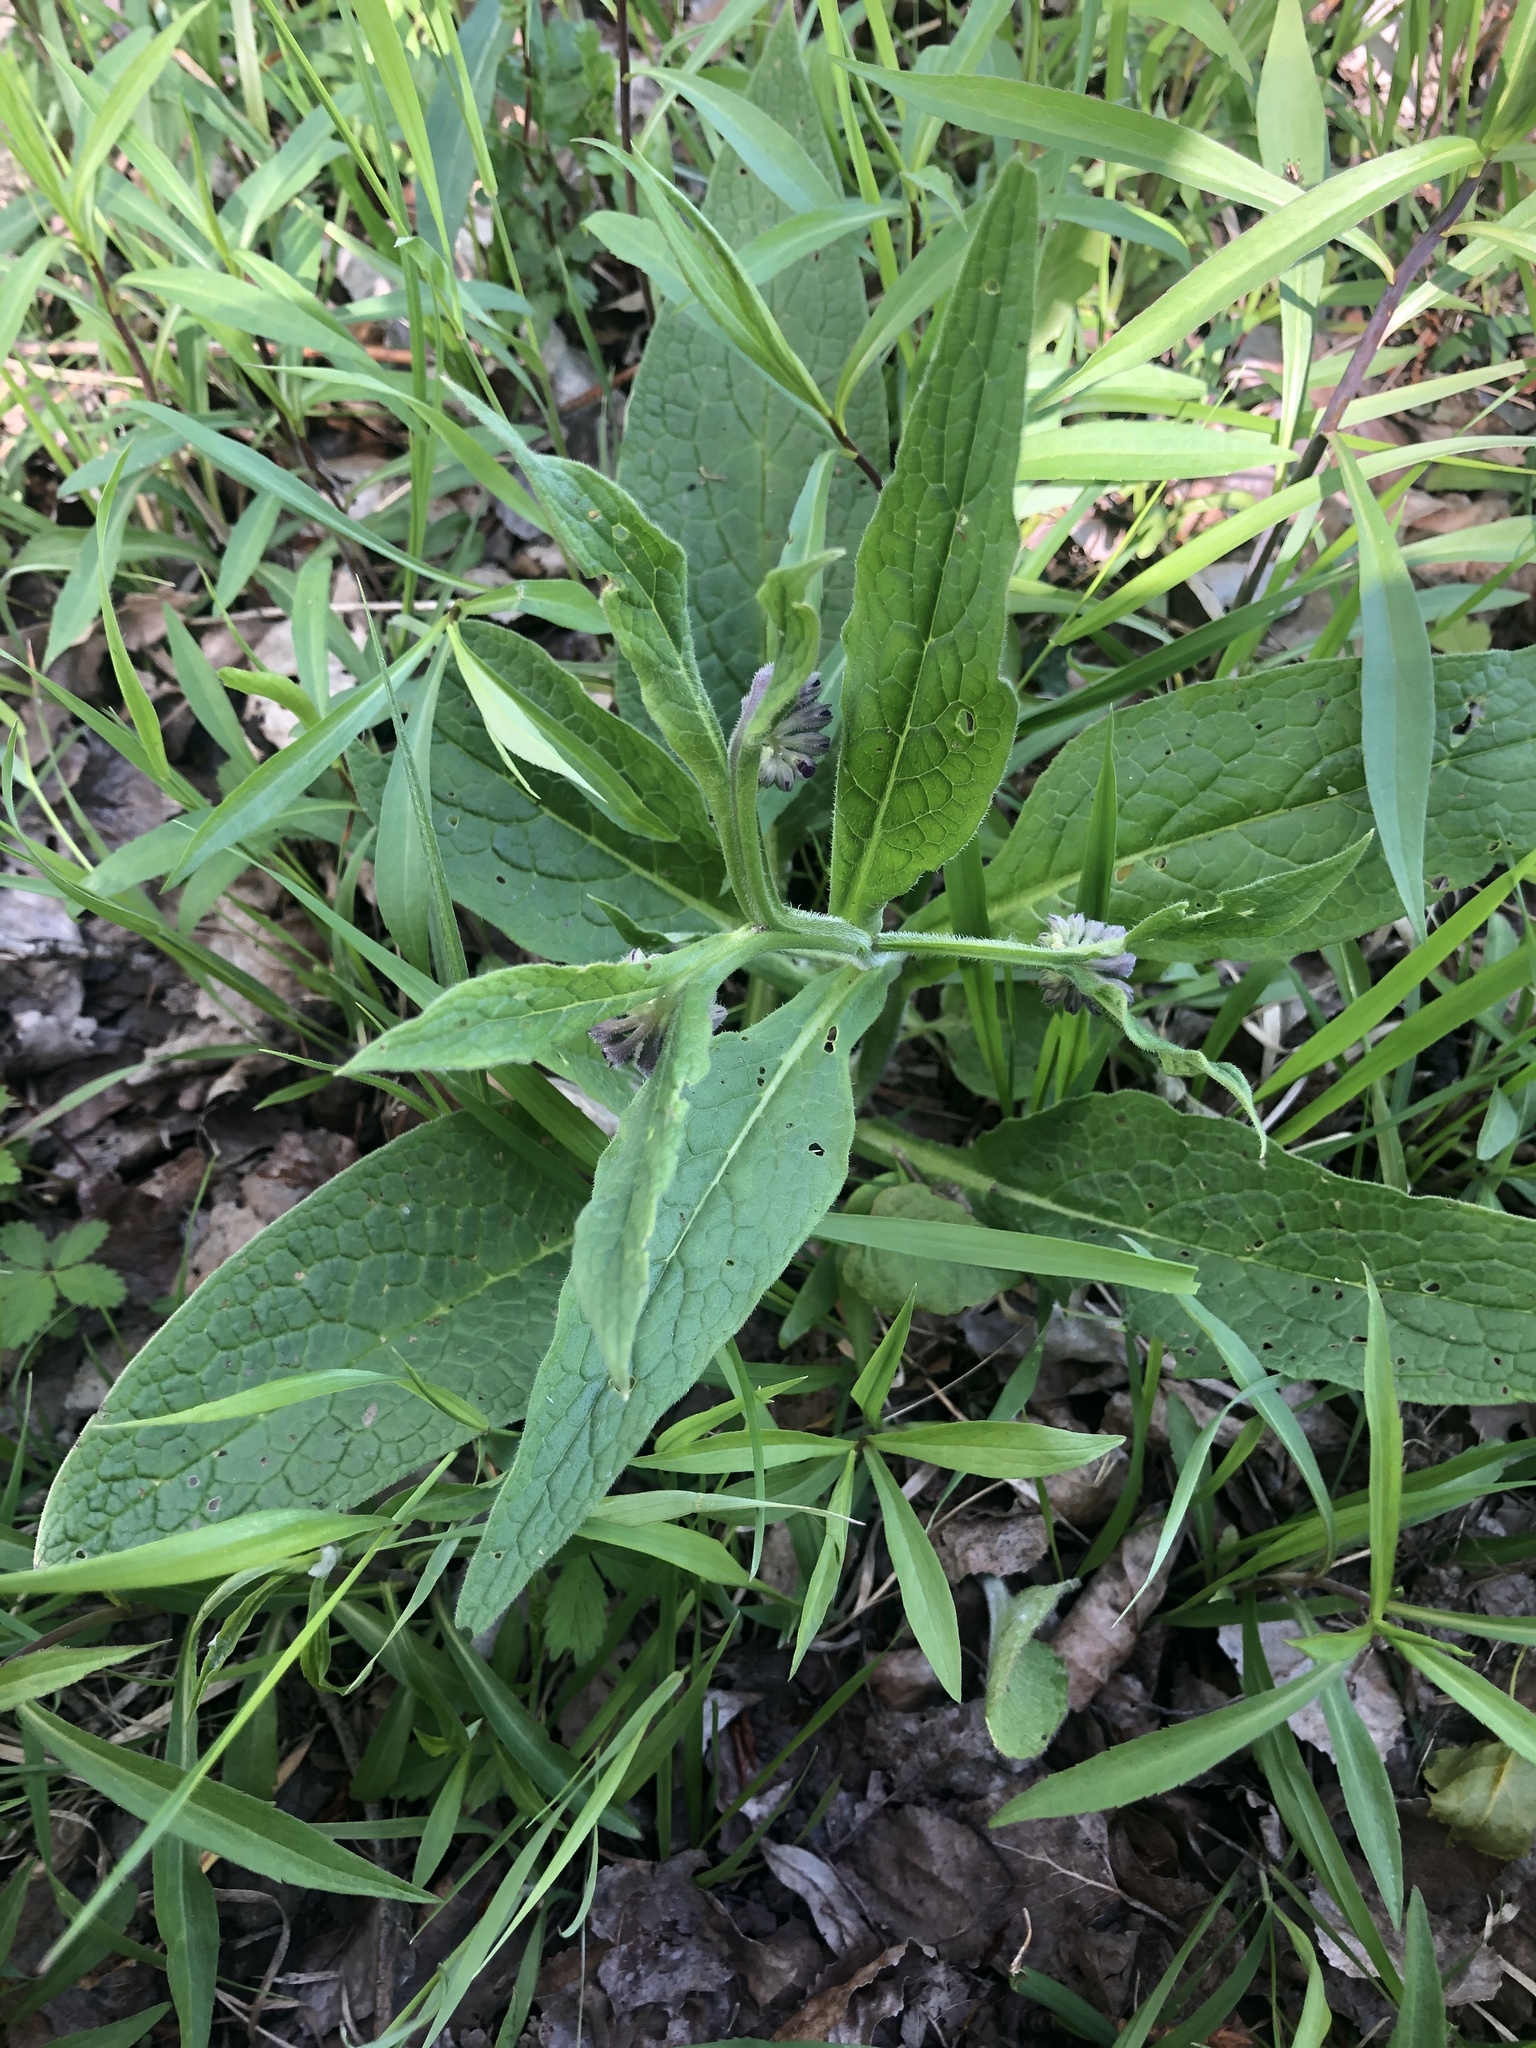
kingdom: Plantae
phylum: Tracheophyta
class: Magnoliopsida
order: Boraginales
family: Boraginaceae
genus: Symphytum
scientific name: Symphytum officinale
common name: Common comfrey
